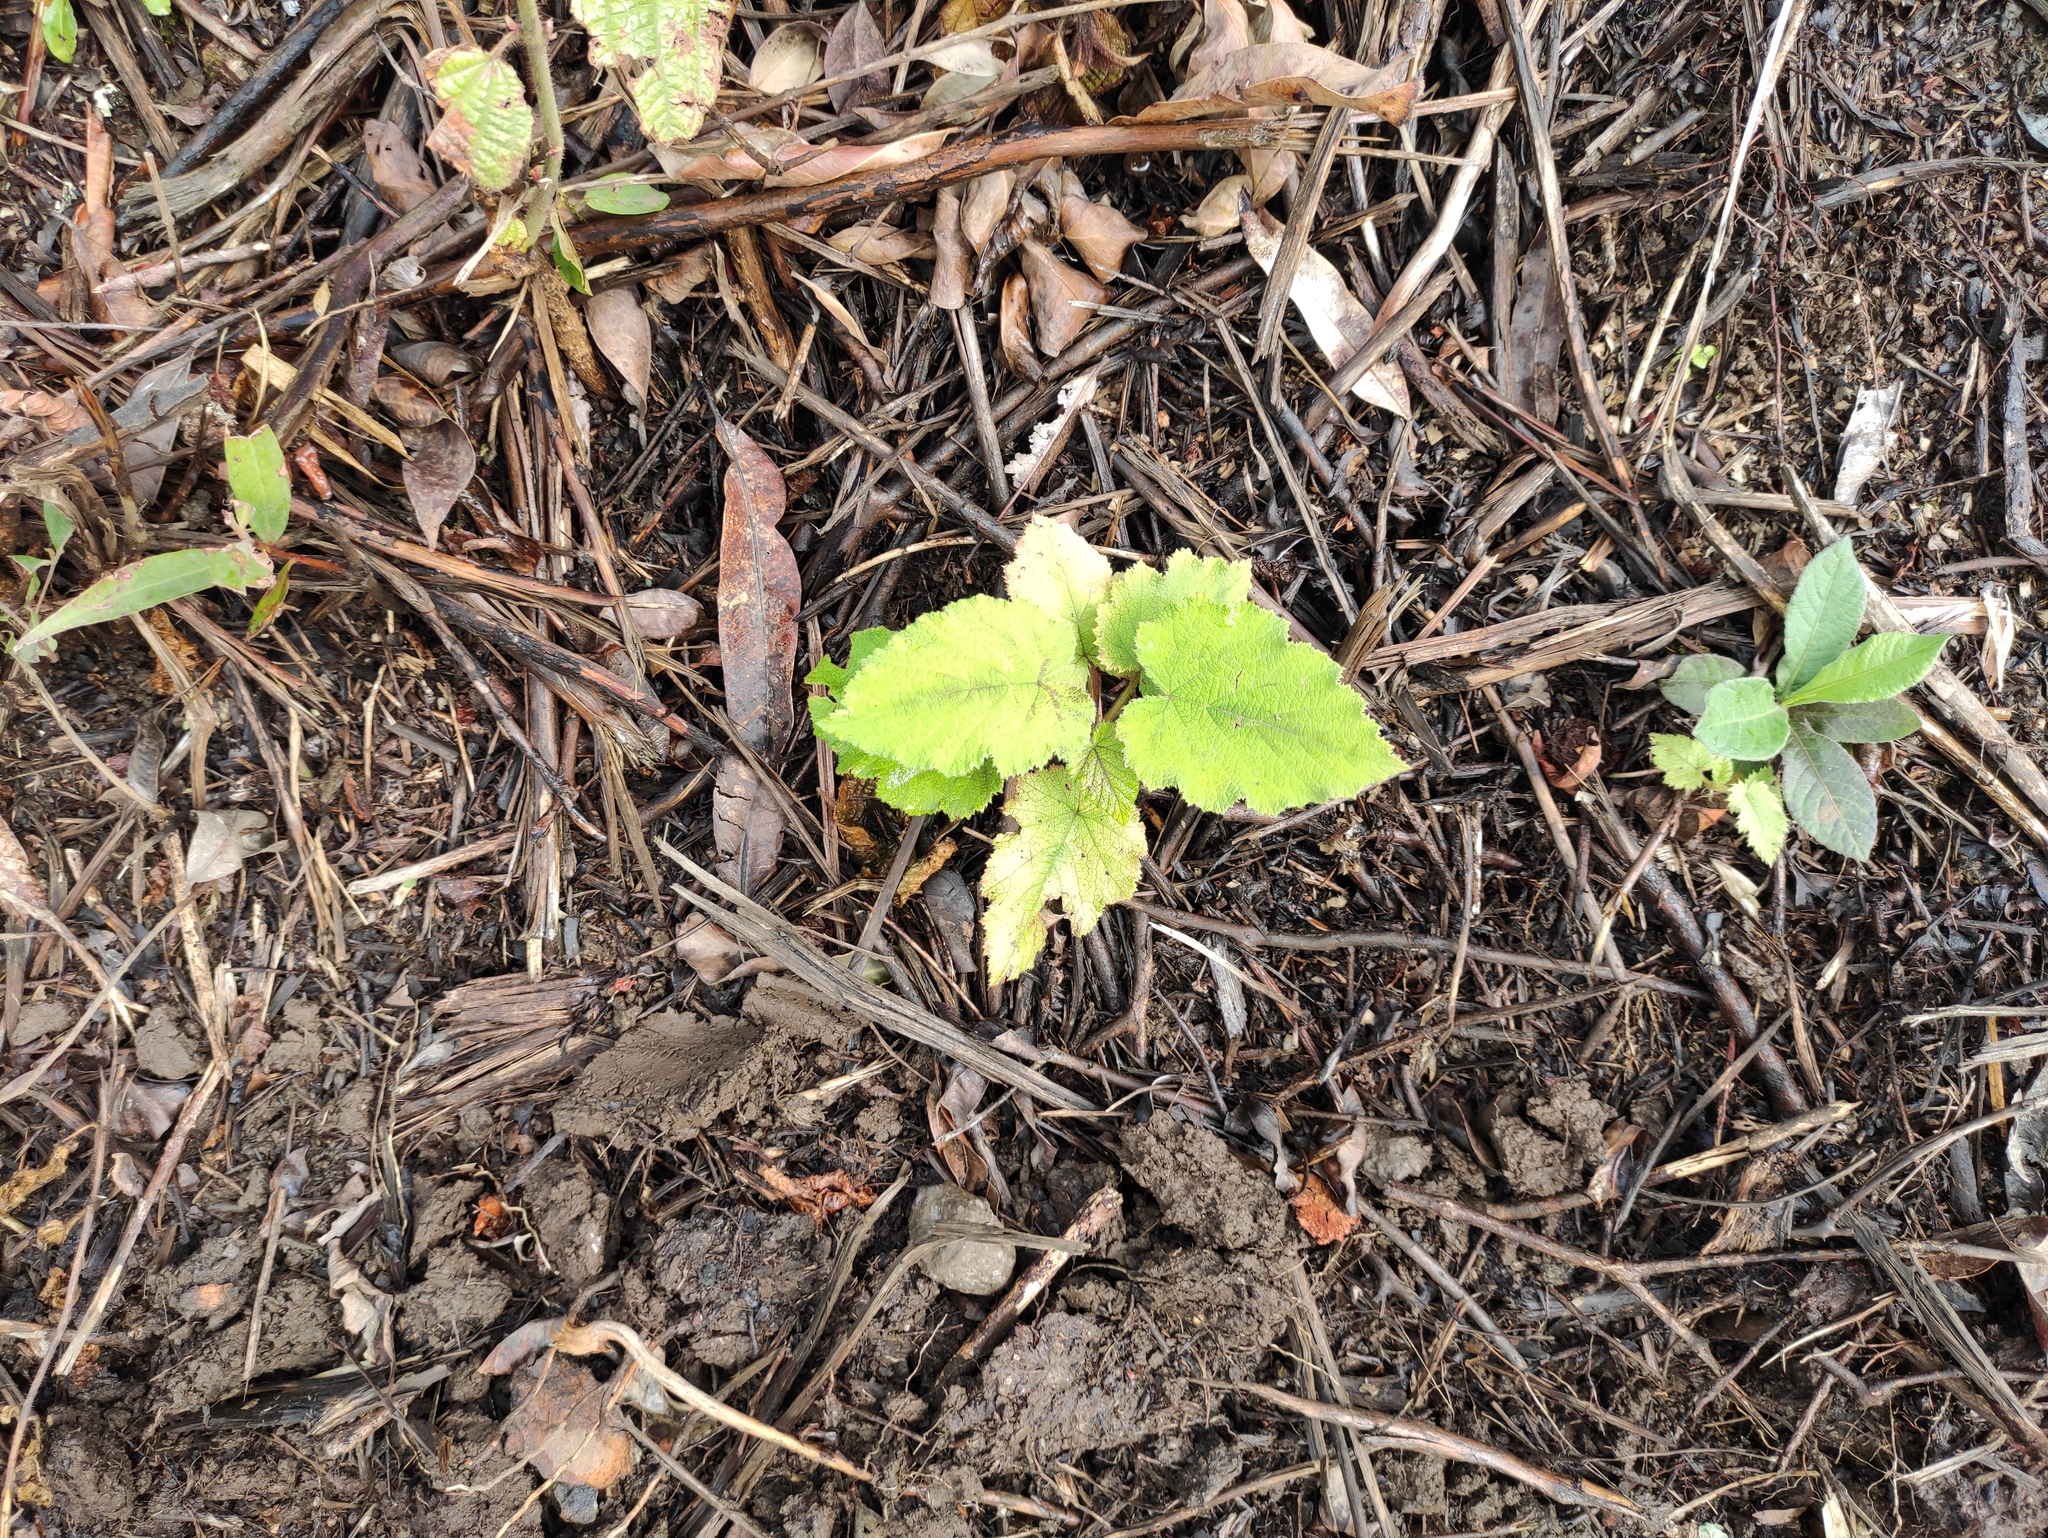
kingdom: Plantae
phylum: Tracheophyta
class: Magnoliopsida
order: Rosales
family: Rosaceae
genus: Rubus
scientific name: Rubus alceifolius
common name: Giant bramble
